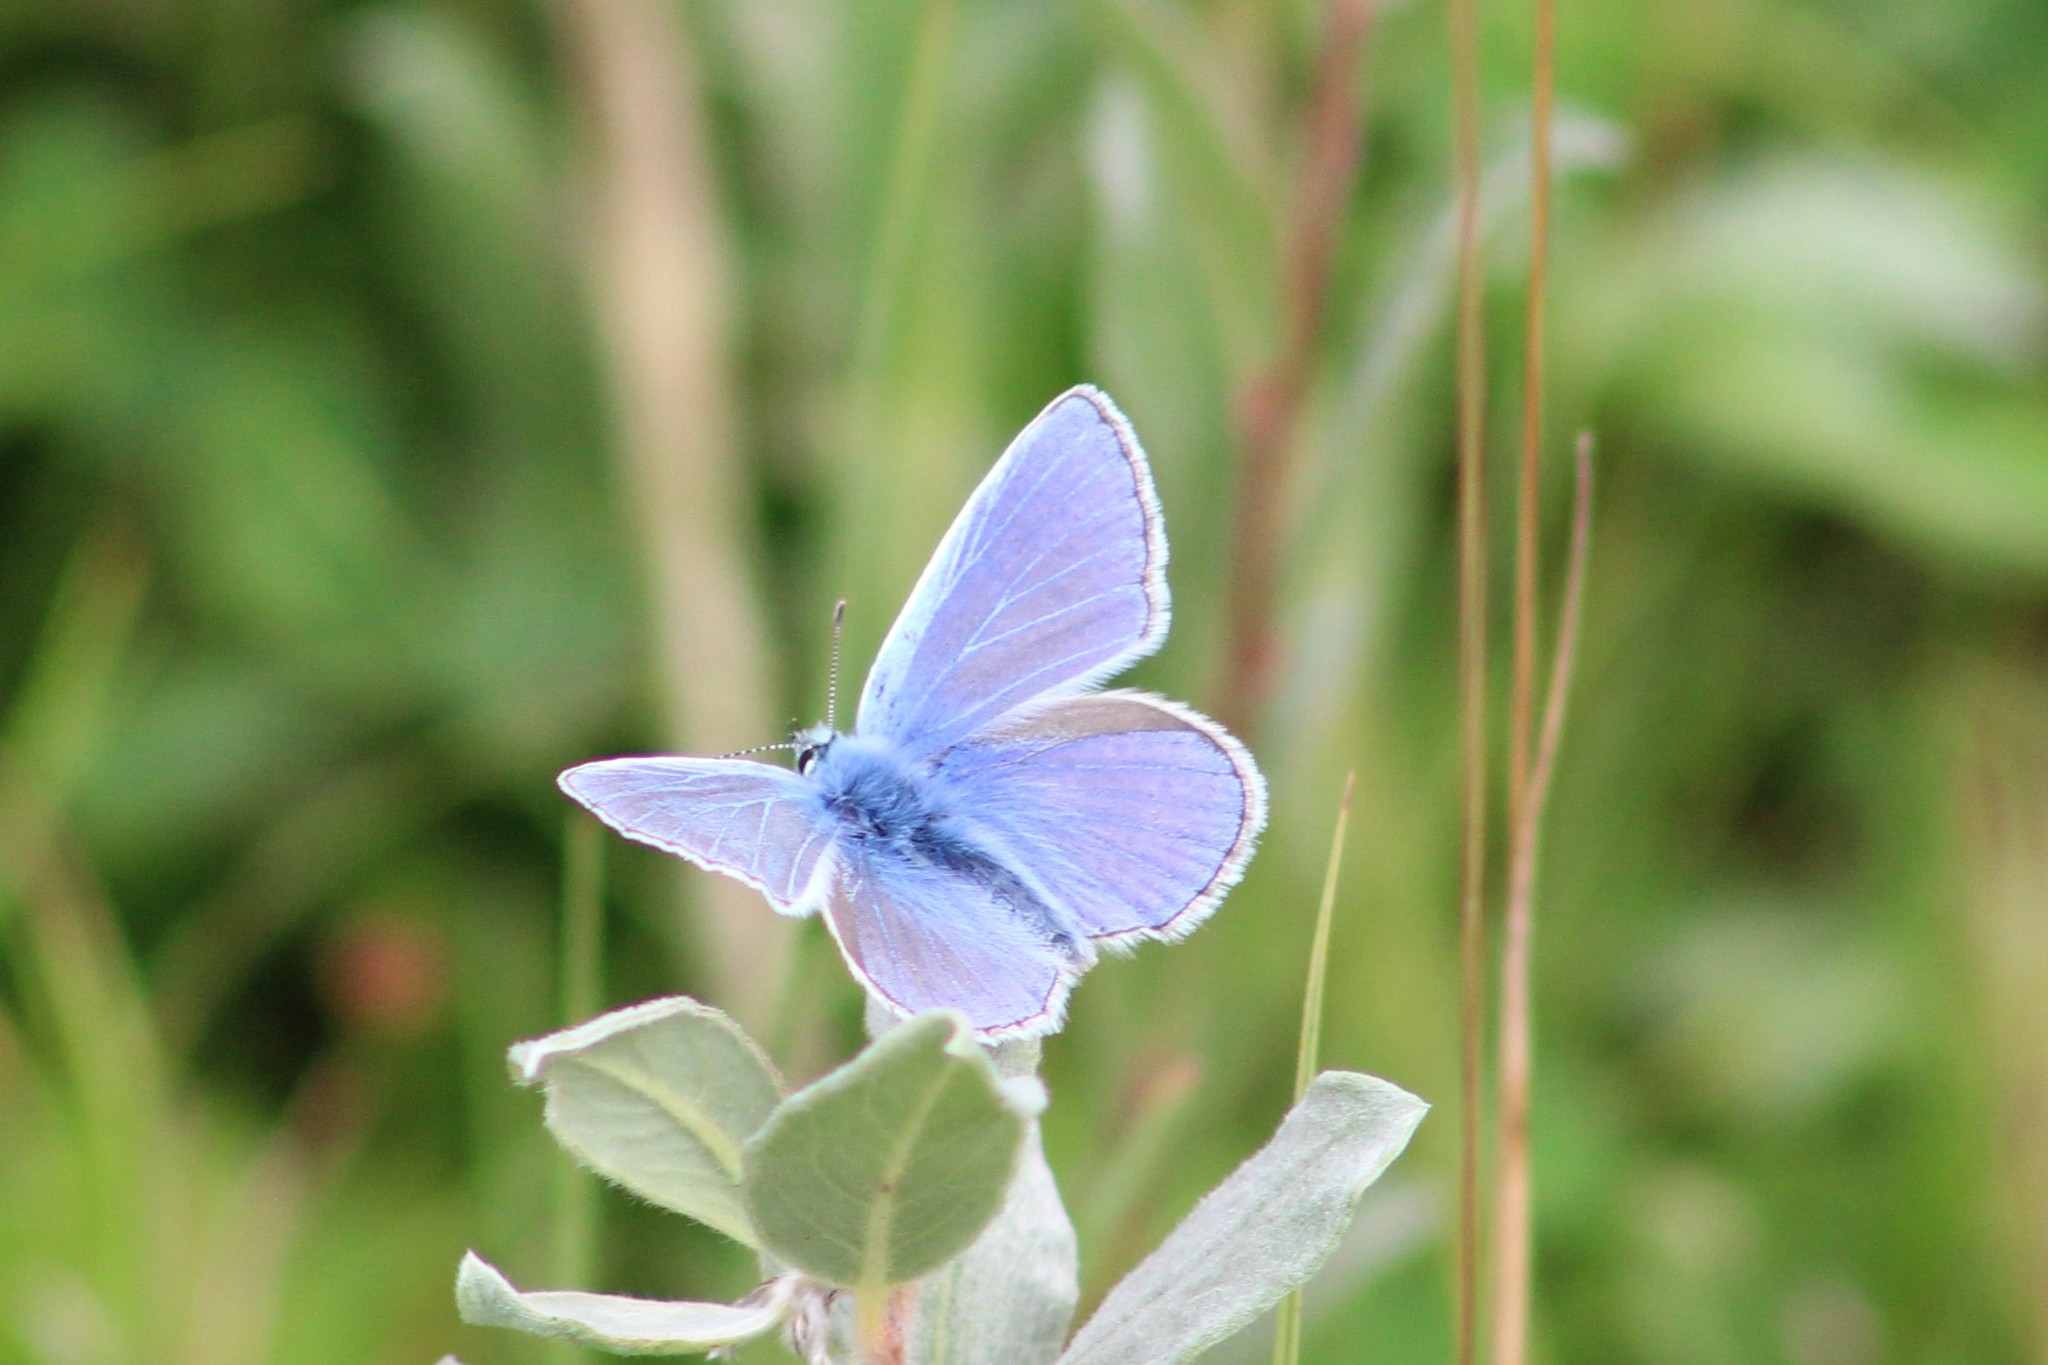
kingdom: Animalia
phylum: Arthropoda
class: Insecta
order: Lepidoptera
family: Lycaenidae
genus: Polyommatus
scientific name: Polyommatus icarus
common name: Common blue
